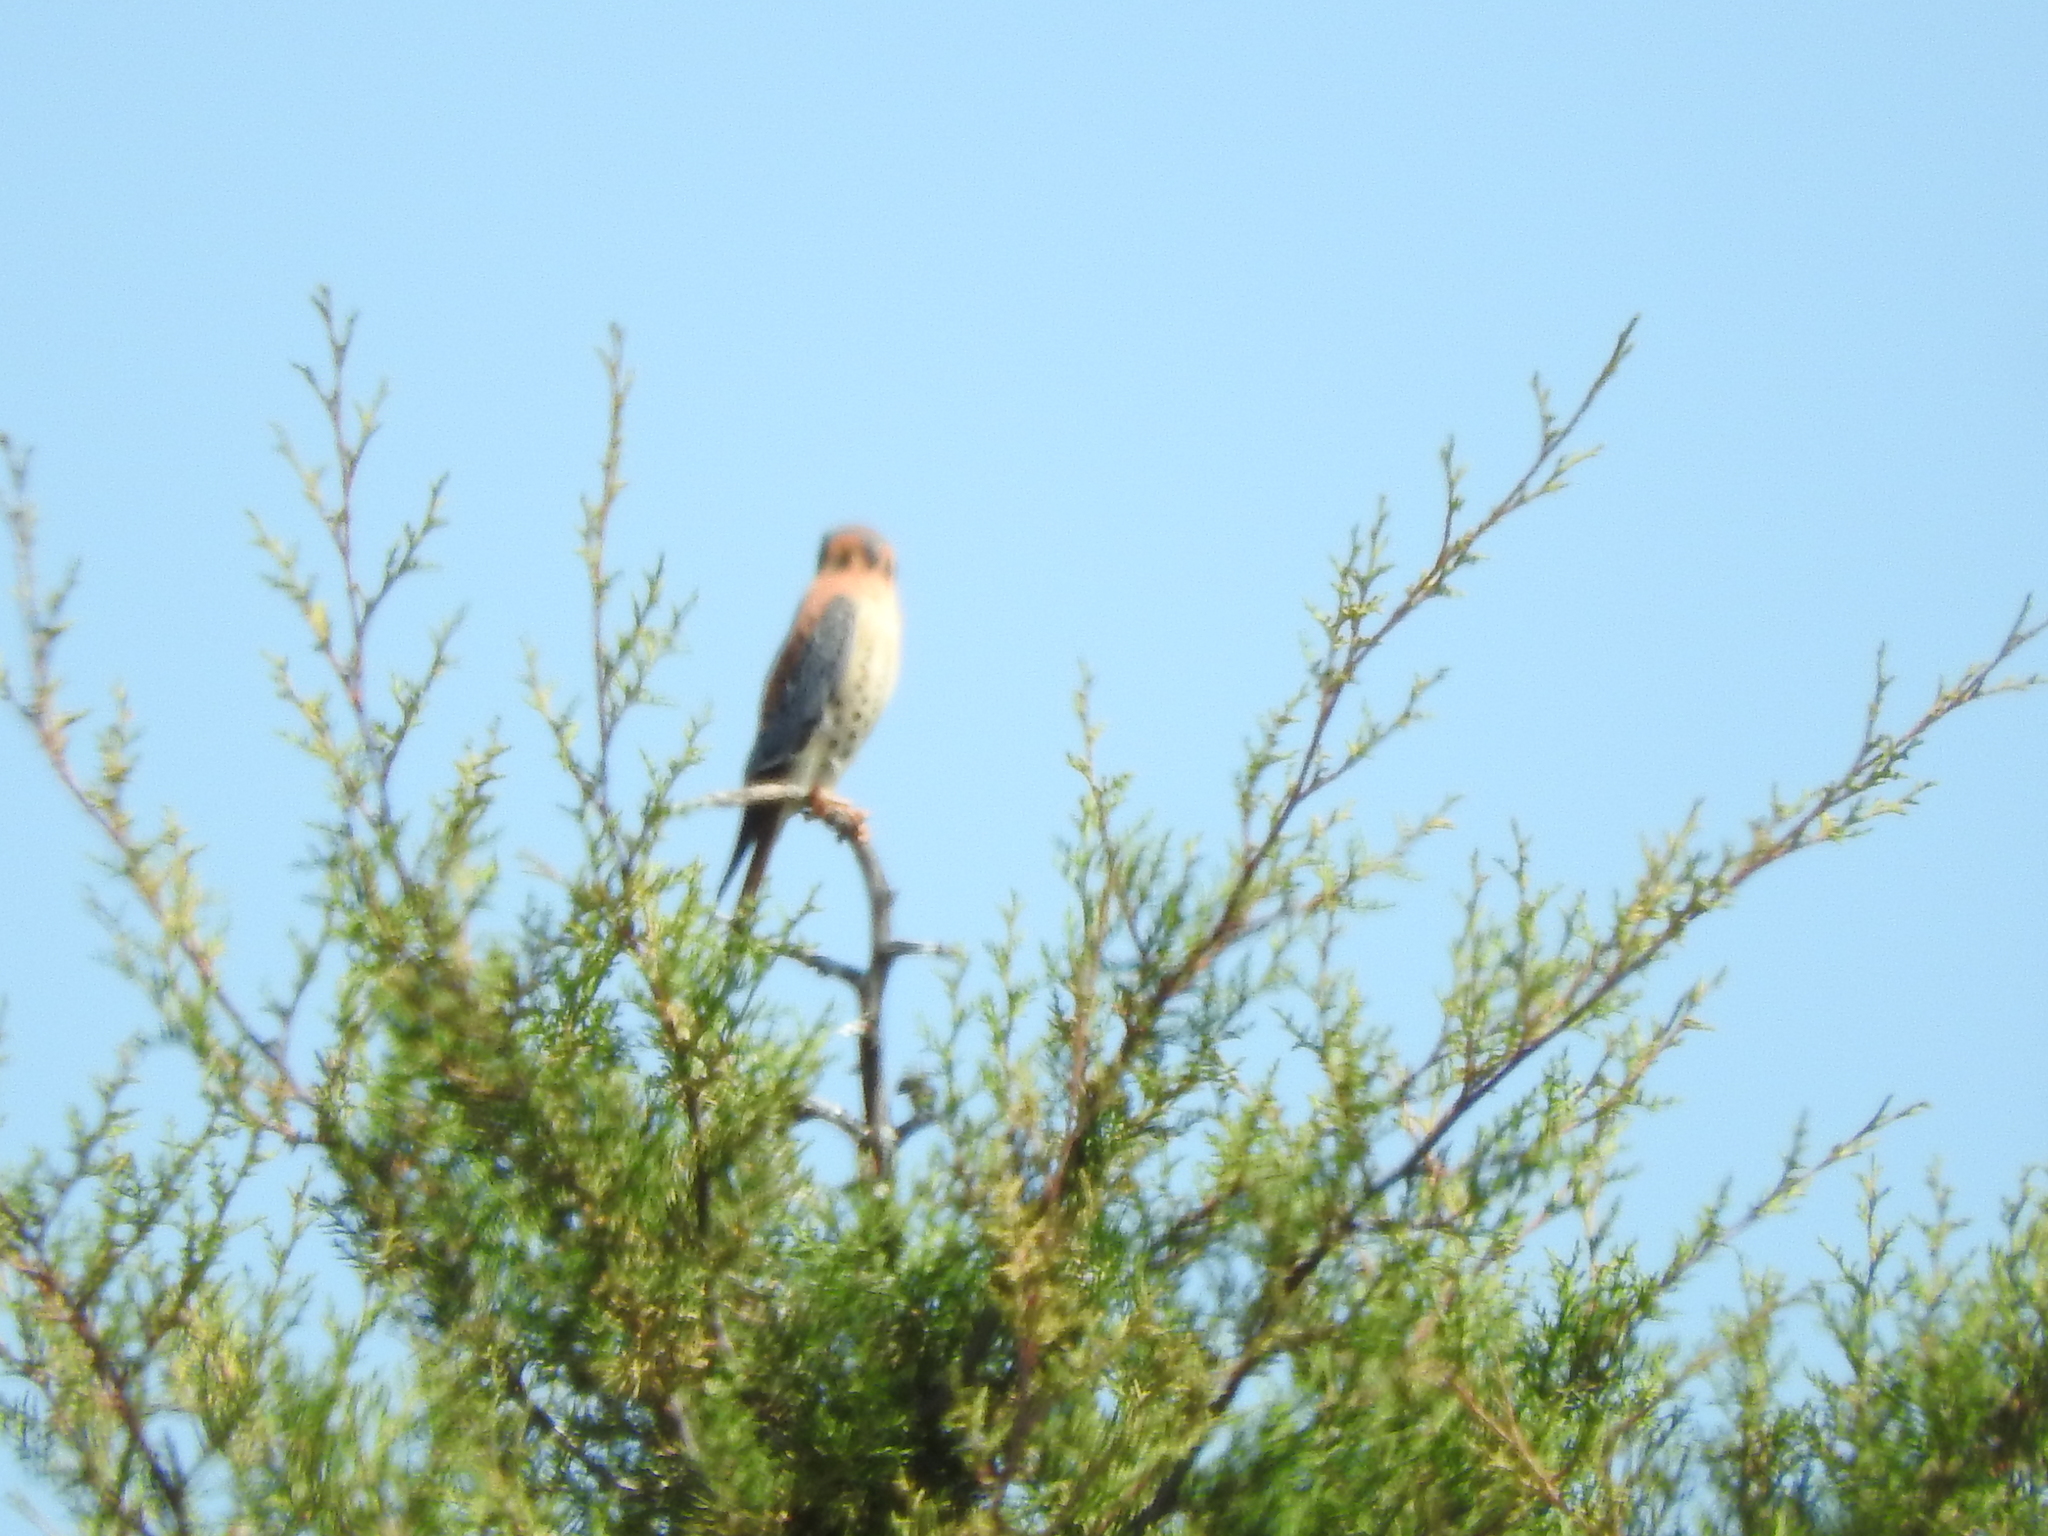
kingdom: Animalia
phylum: Chordata
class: Aves
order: Falconiformes
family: Falconidae
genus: Falco
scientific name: Falco sparverius
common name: American kestrel
